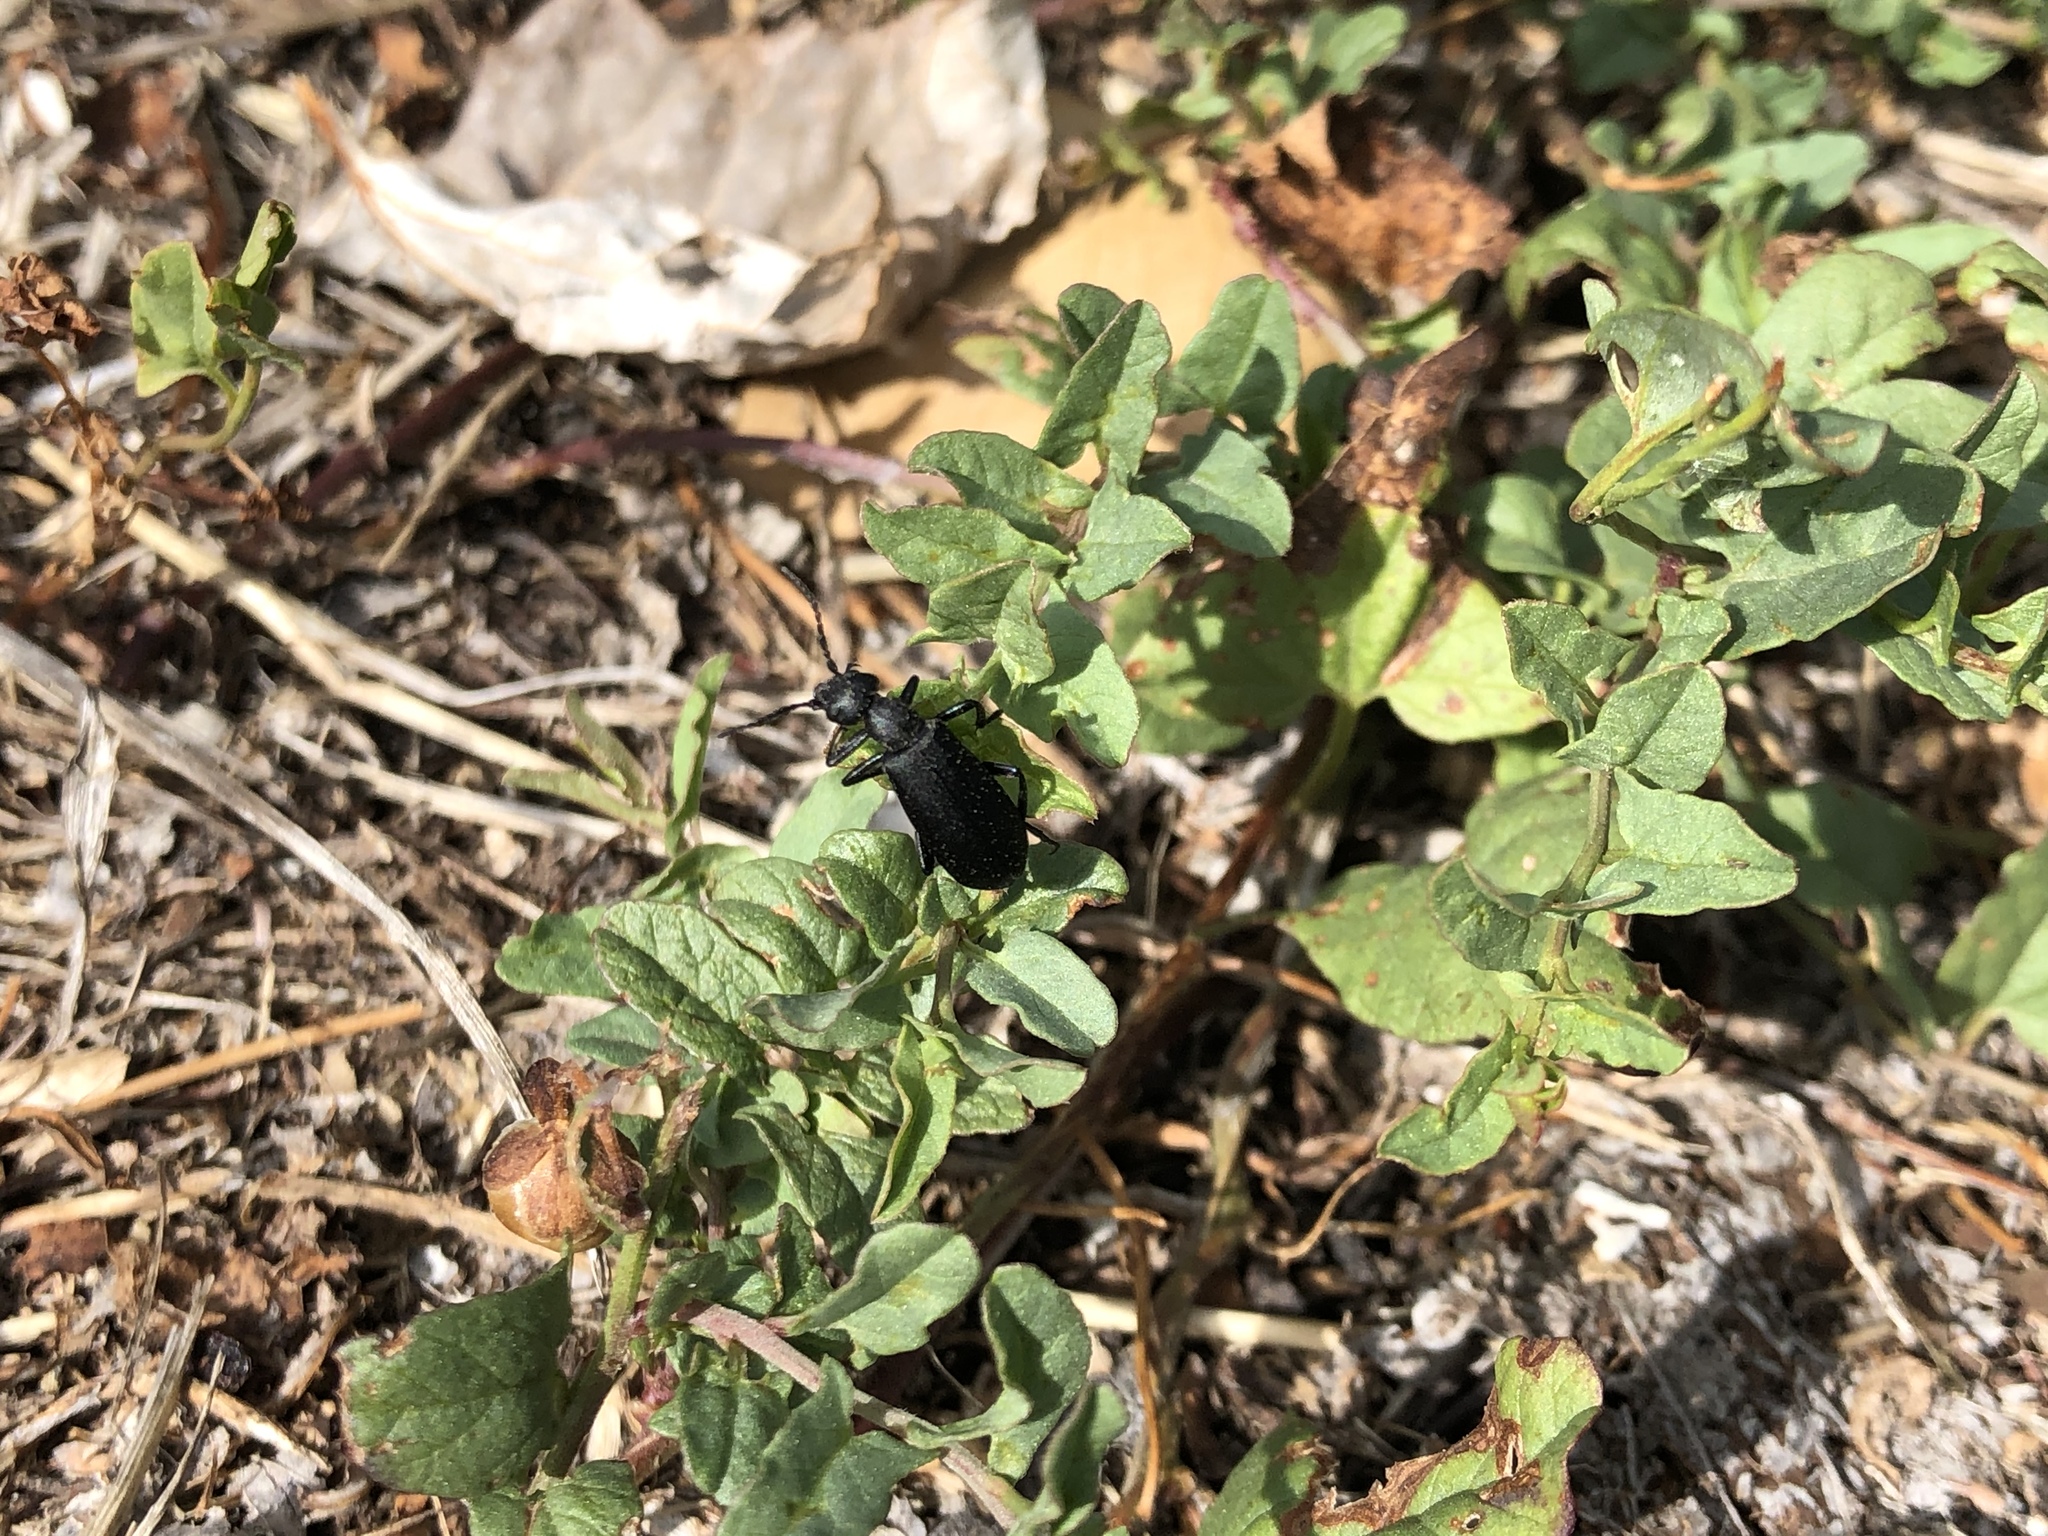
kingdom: Animalia
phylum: Arthropoda
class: Insecta
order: Coleoptera
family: Meloidae
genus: Epicauta
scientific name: Epicauta pensylvanica
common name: Black blister beetle
